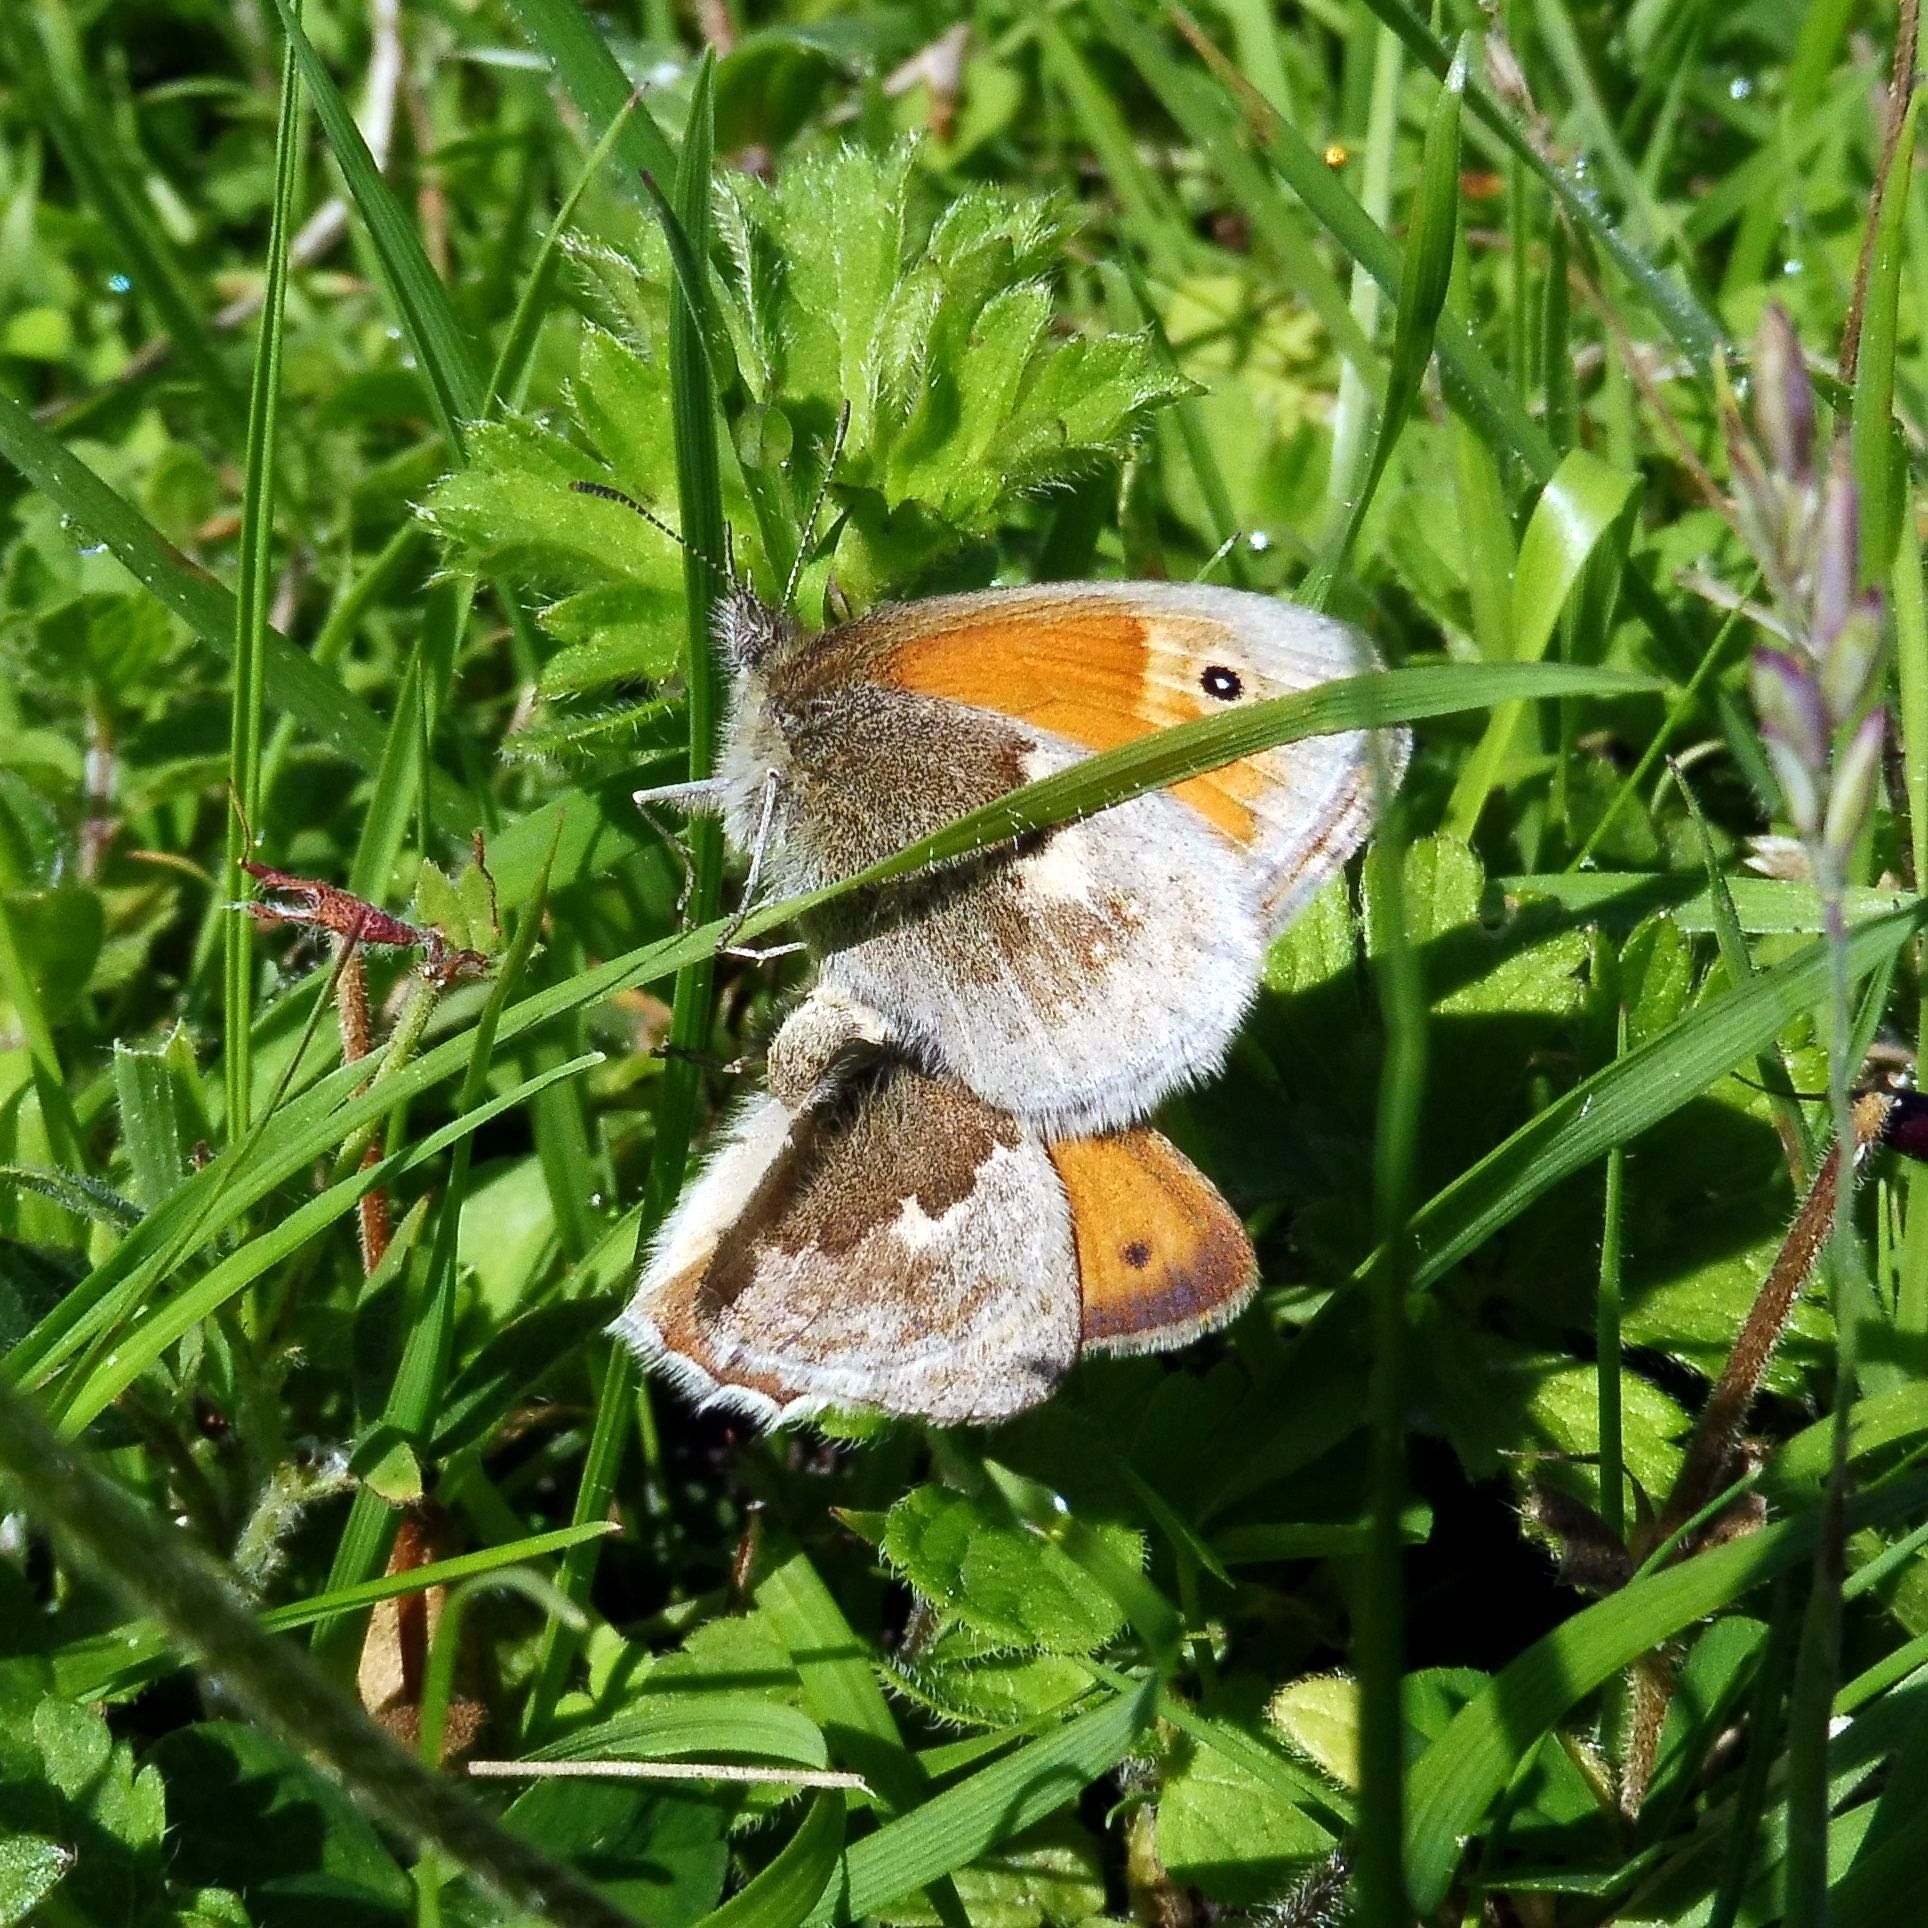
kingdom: Animalia
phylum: Arthropoda
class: Insecta
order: Lepidoptera
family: Nymphalidae
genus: Coenonympha
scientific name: Coenonympha pamphilus
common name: Small heath
